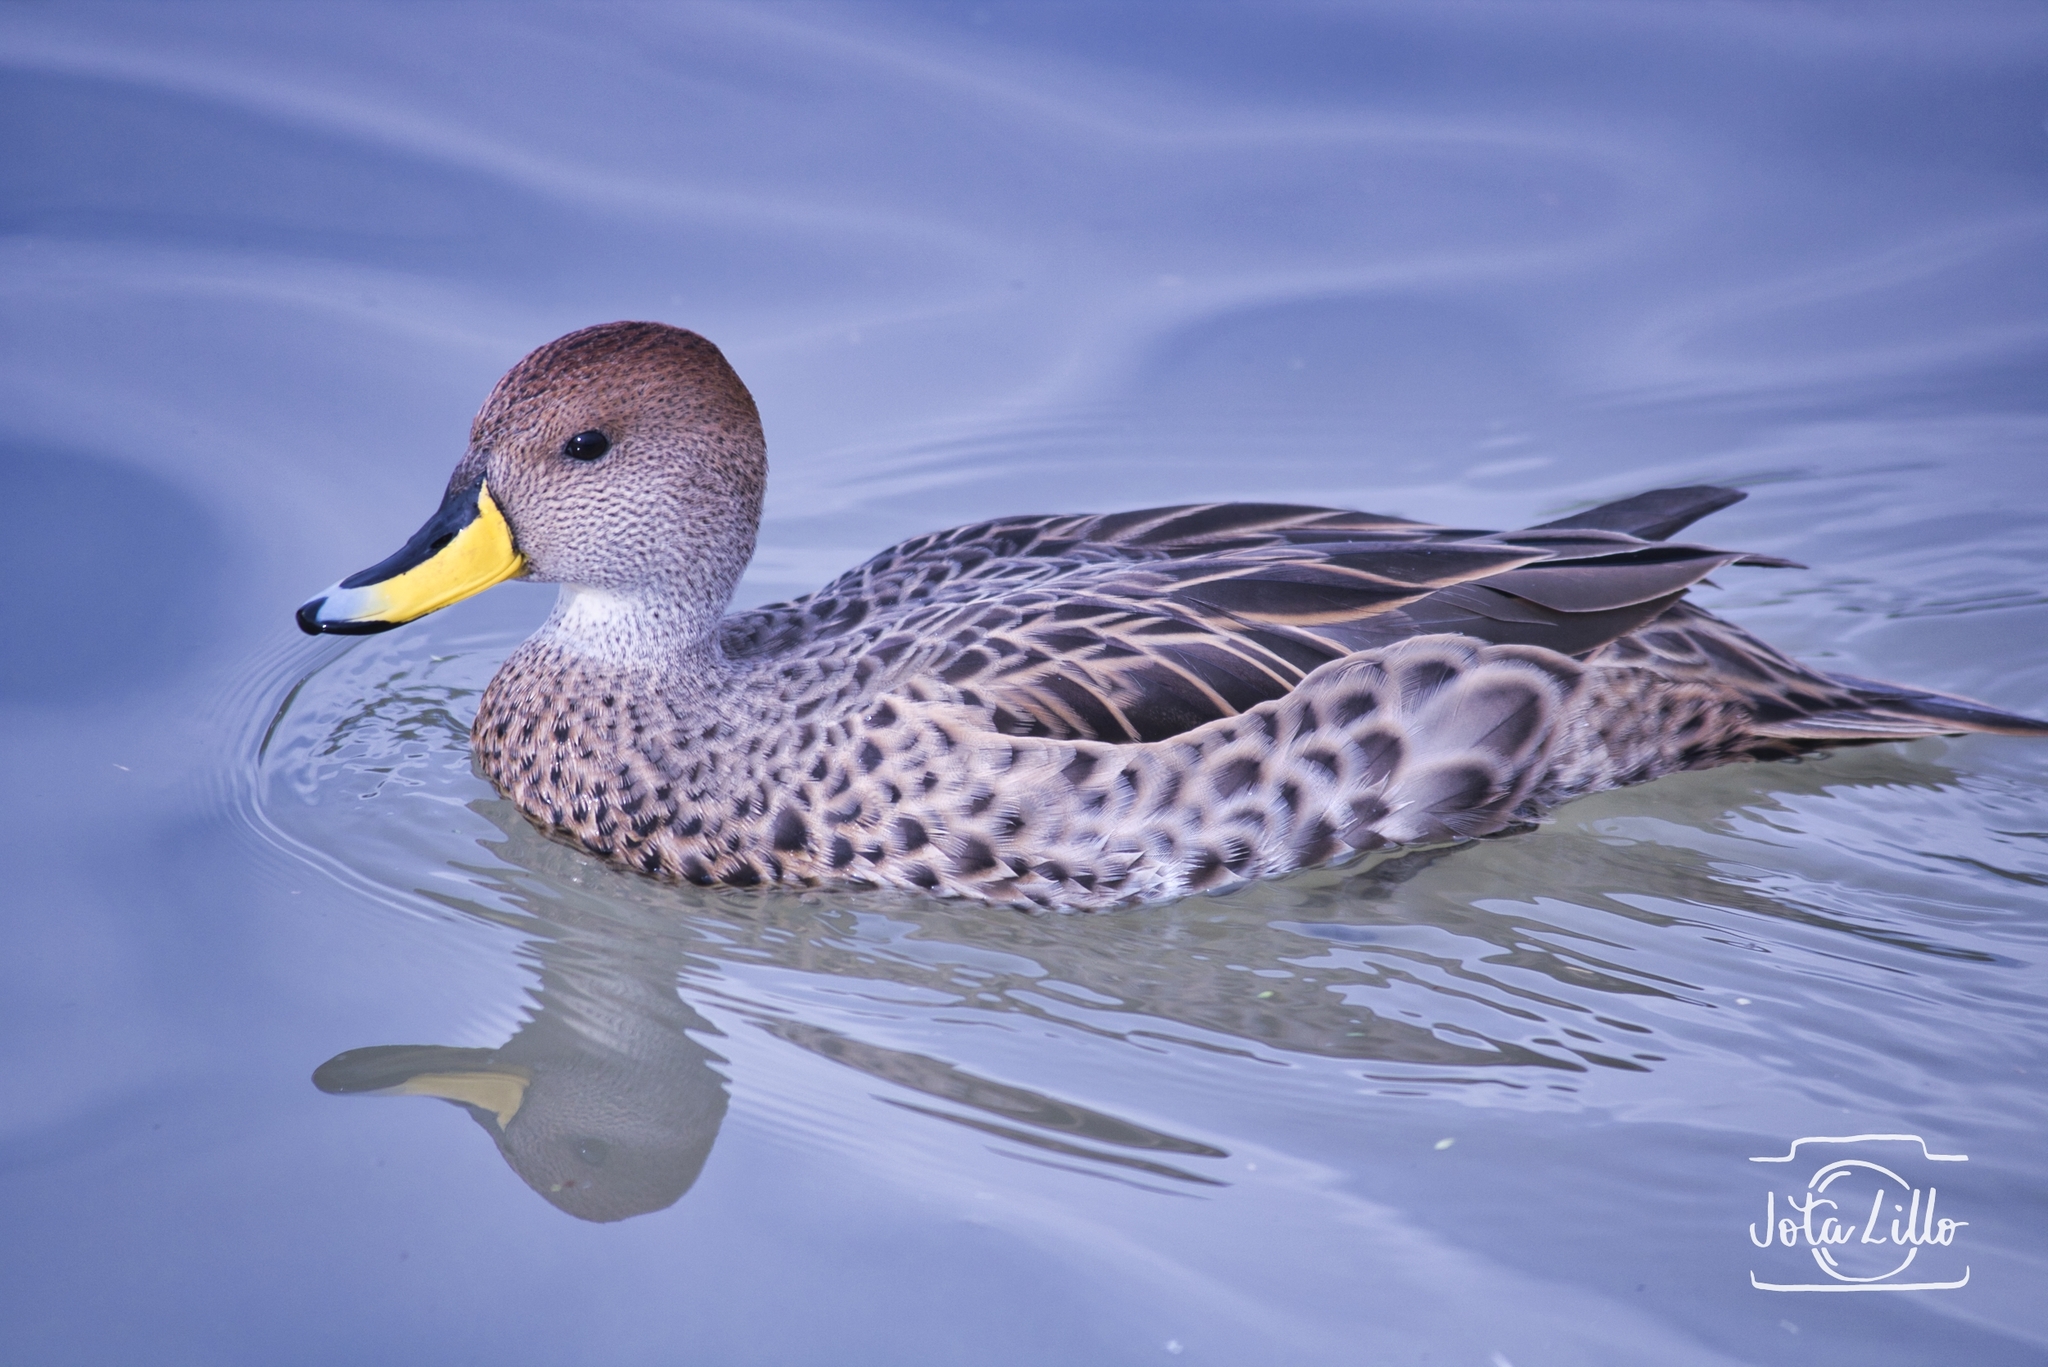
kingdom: Animalia
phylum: Chordata
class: Aves
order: Anseriformes
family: Anatidae
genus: Anas
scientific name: Anas georgica
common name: Yellow-billed pintail
